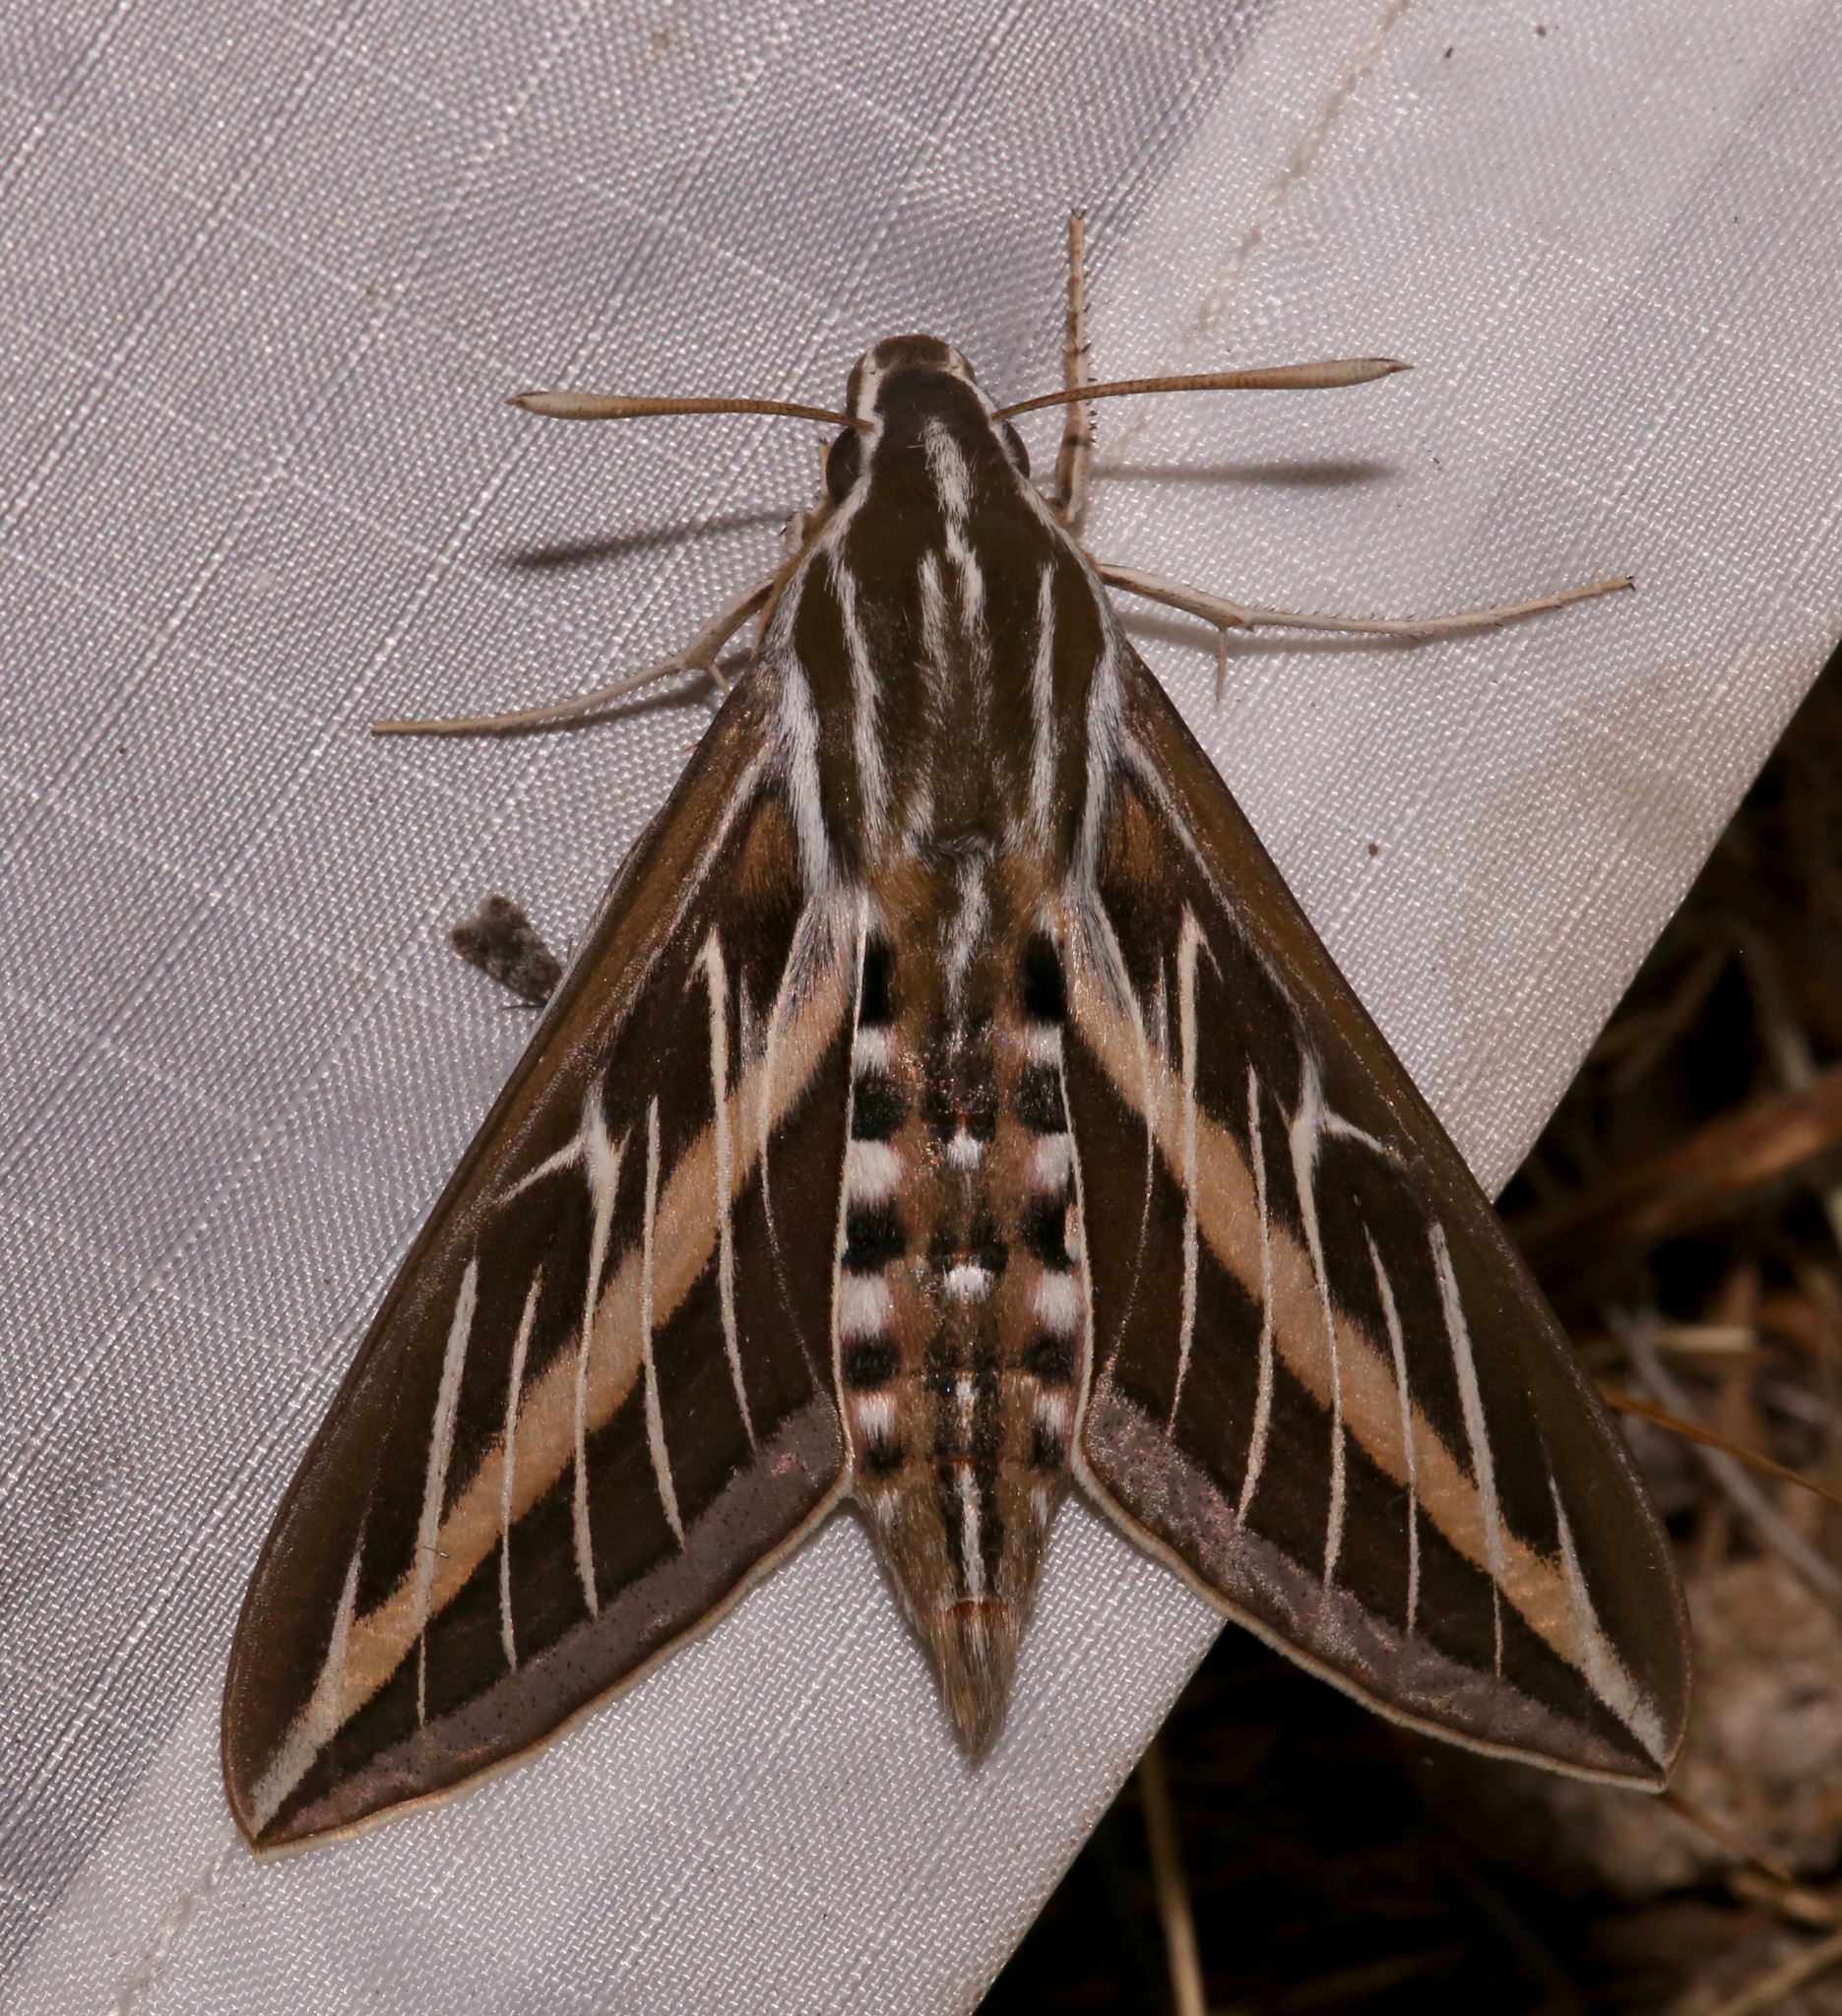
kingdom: Animalia
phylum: Arthropoda
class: Insecta
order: Lepidoptera
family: Sphingidae
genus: Hyles
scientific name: Hyles lineata
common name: White-lined sphinx
